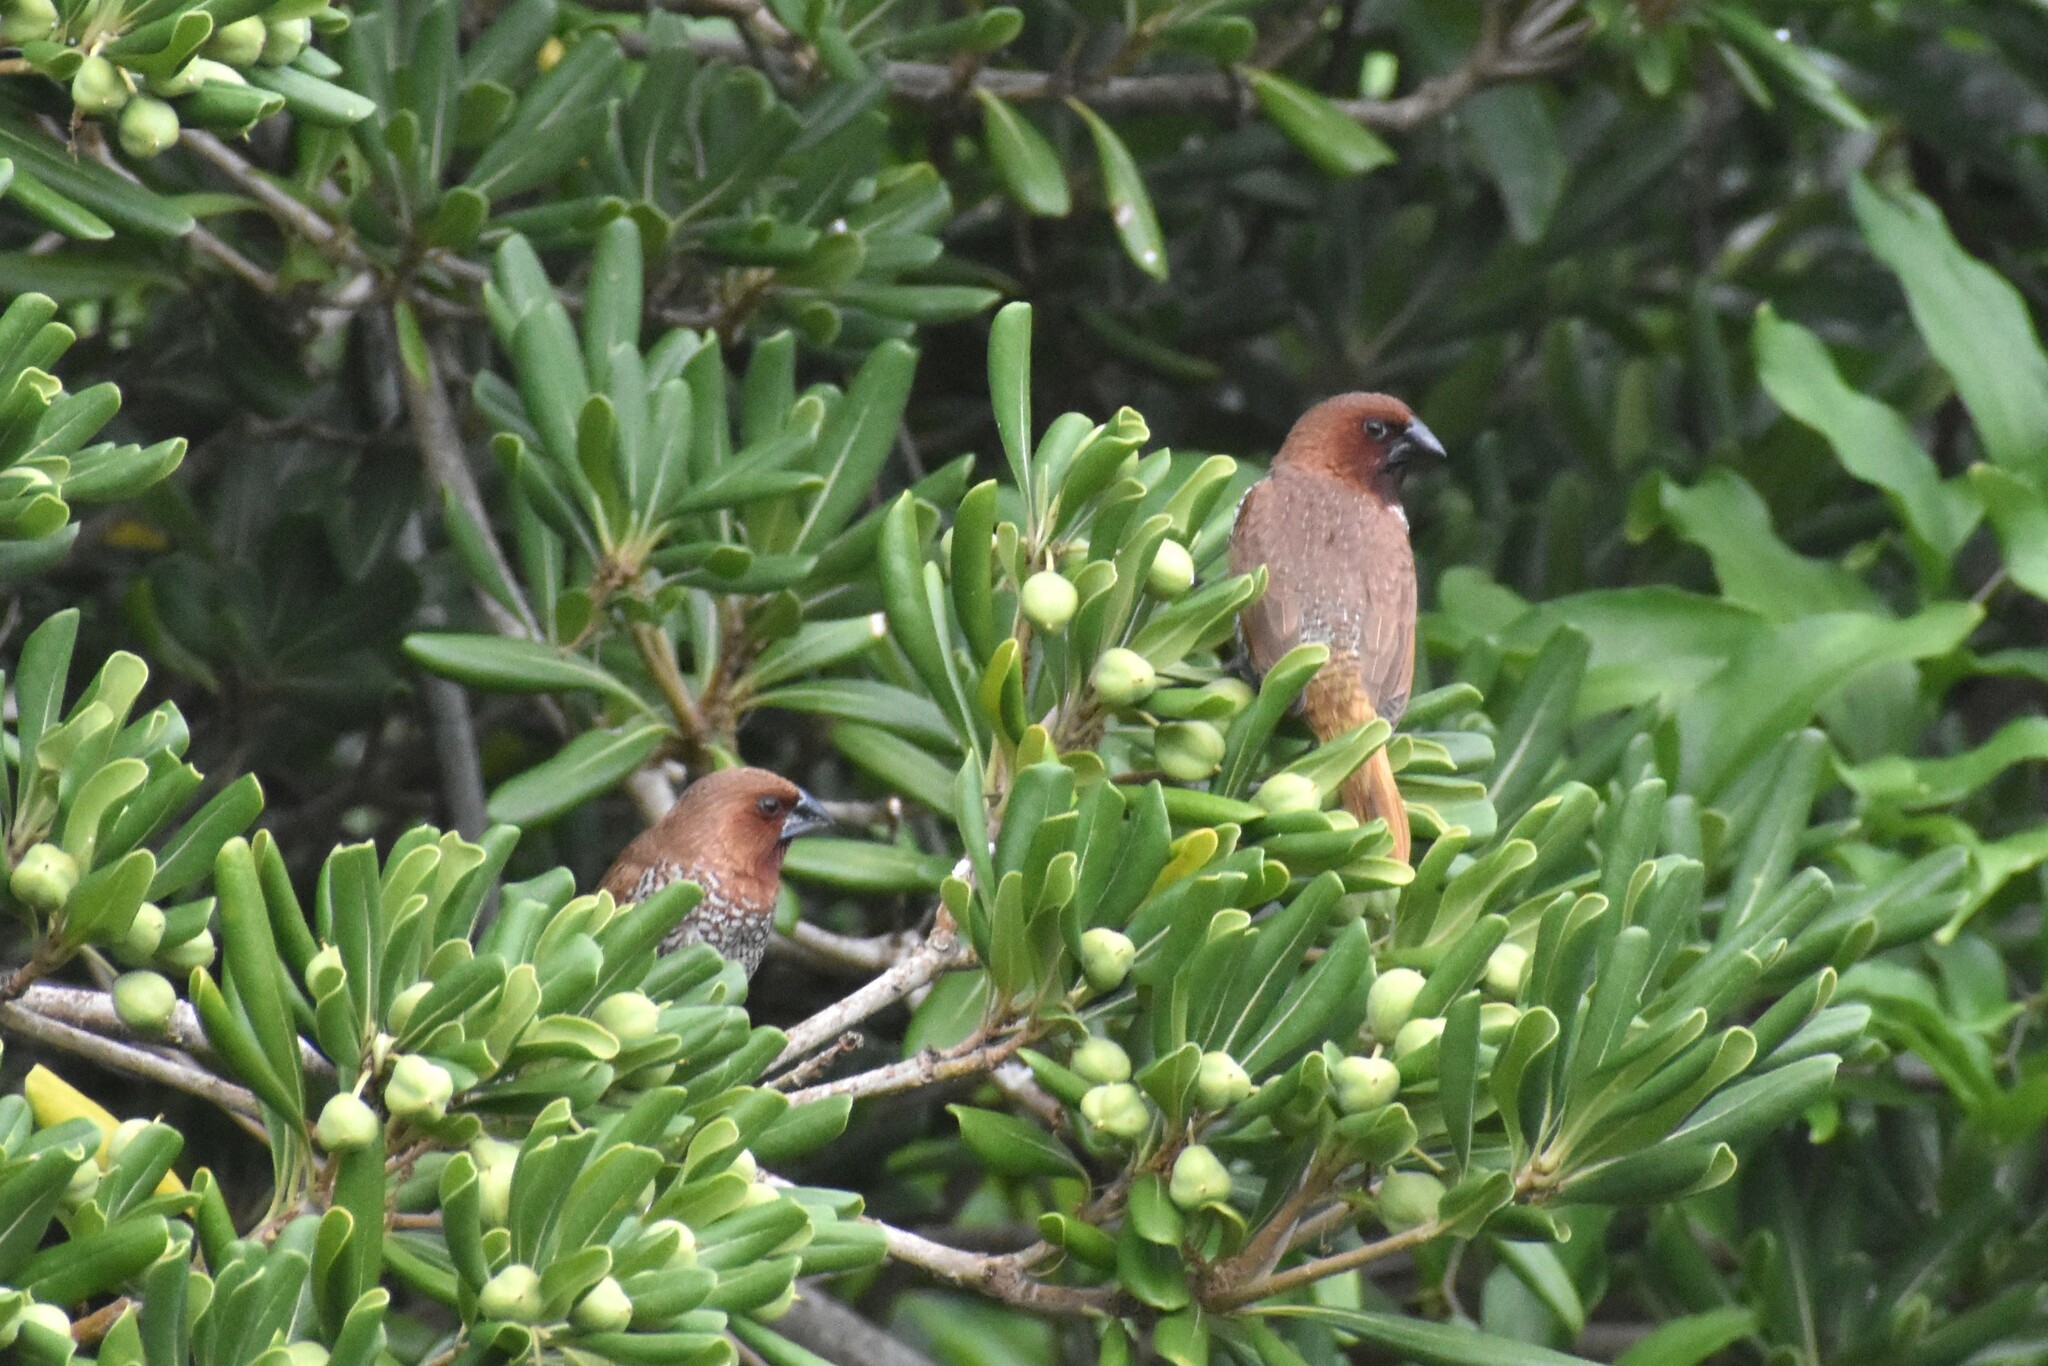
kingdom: Animalia
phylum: Chordata
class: Aves
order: Passeriformes
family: Estrildidae
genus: Lonchura
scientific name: Lonchura punctulata
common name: Scaly-breasted munia
